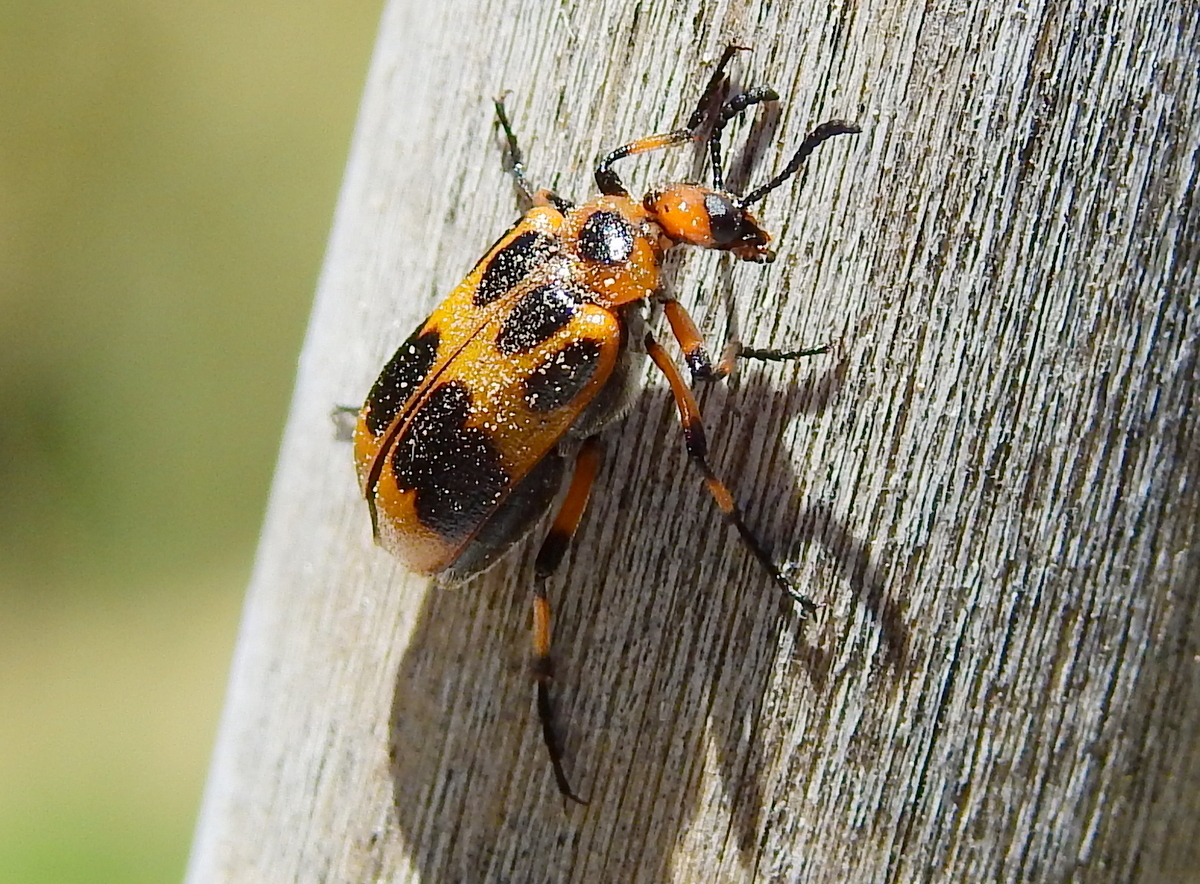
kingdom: Animalia
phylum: Arthropoda
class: Insecta
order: Coleoptera
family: Meloidae
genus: Tetraonyx
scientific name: Tetraonyx
